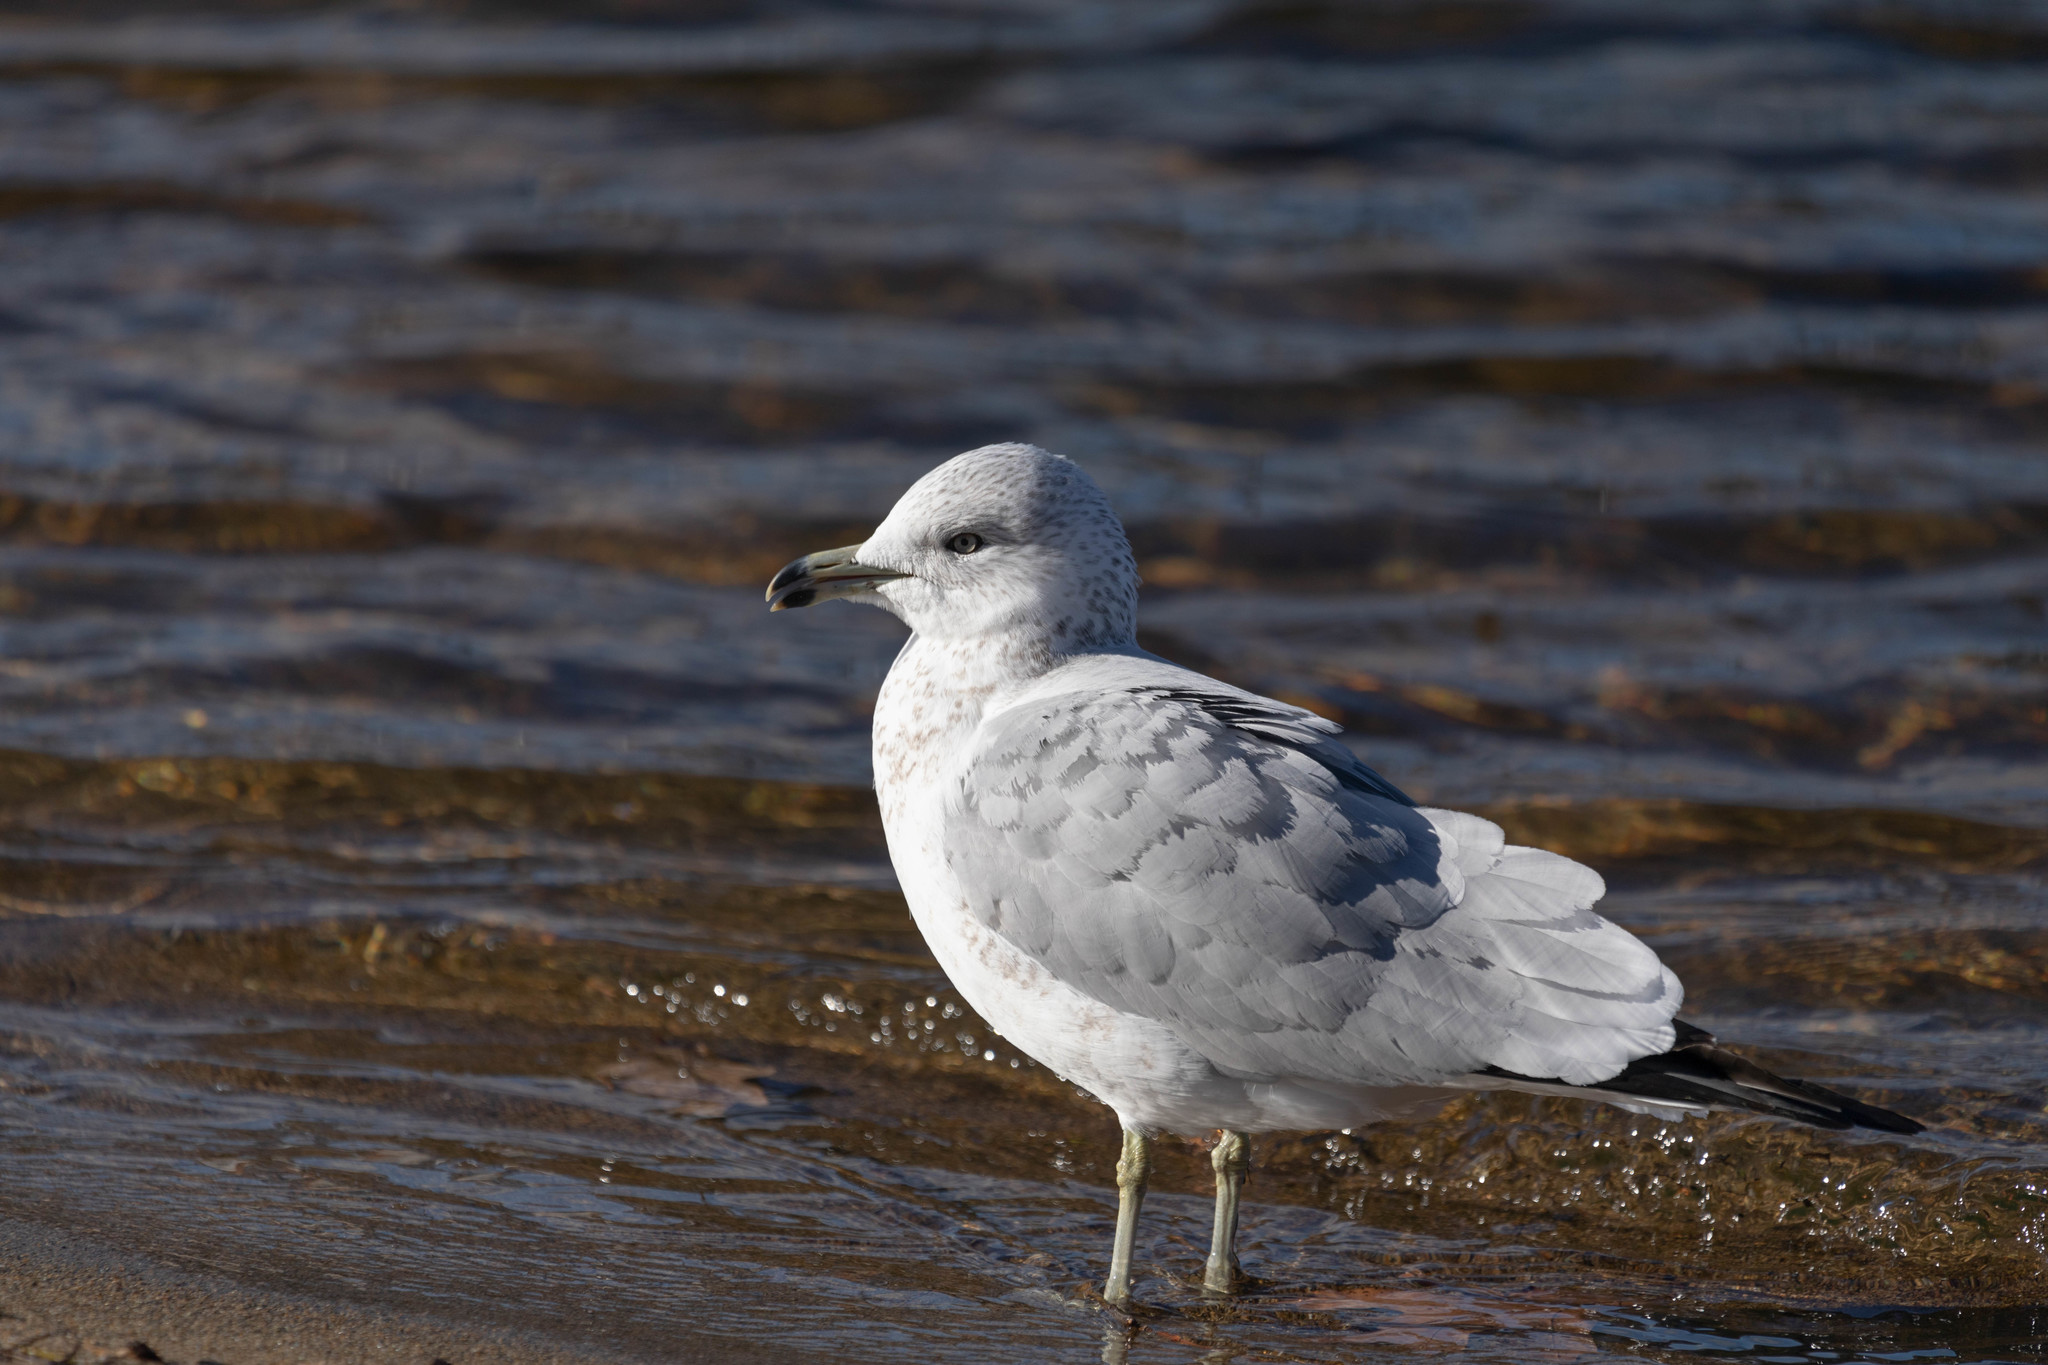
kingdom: Animalia
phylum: Chordata
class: Aves
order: Charadriiformes
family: Laridae
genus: Larus
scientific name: Larus delawarensis
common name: Ring-billed gull
